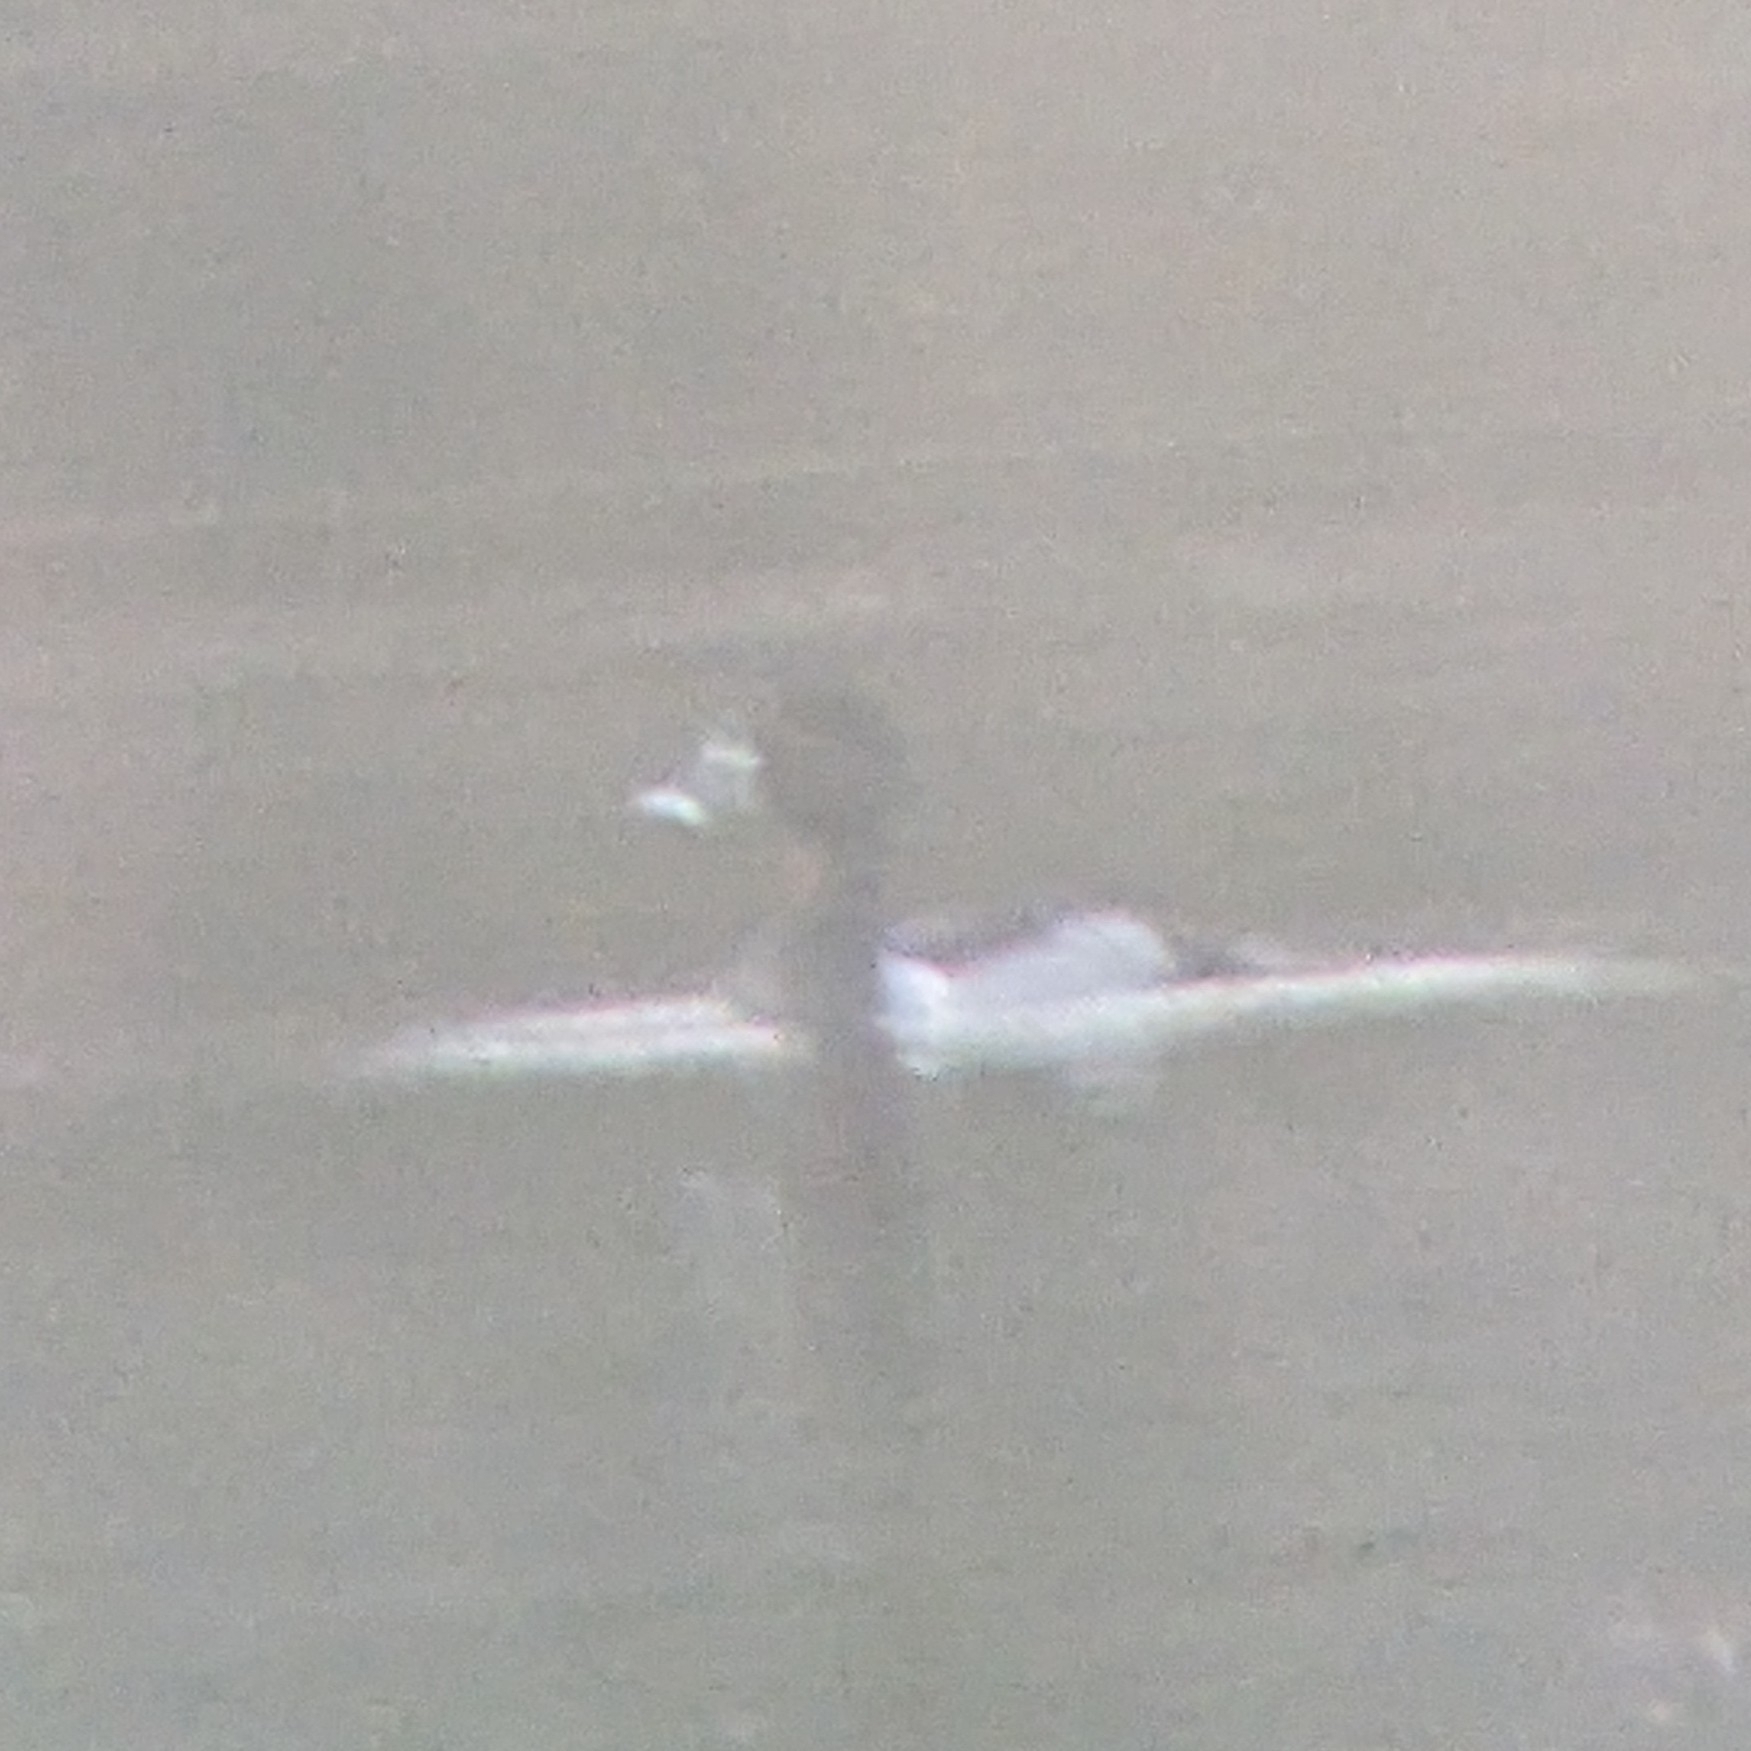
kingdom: Animalia
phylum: Chordata
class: Aves
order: Anseriformes
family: Anatidae
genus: Aythya
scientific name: Aythya collaris
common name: Ring-necked duck
